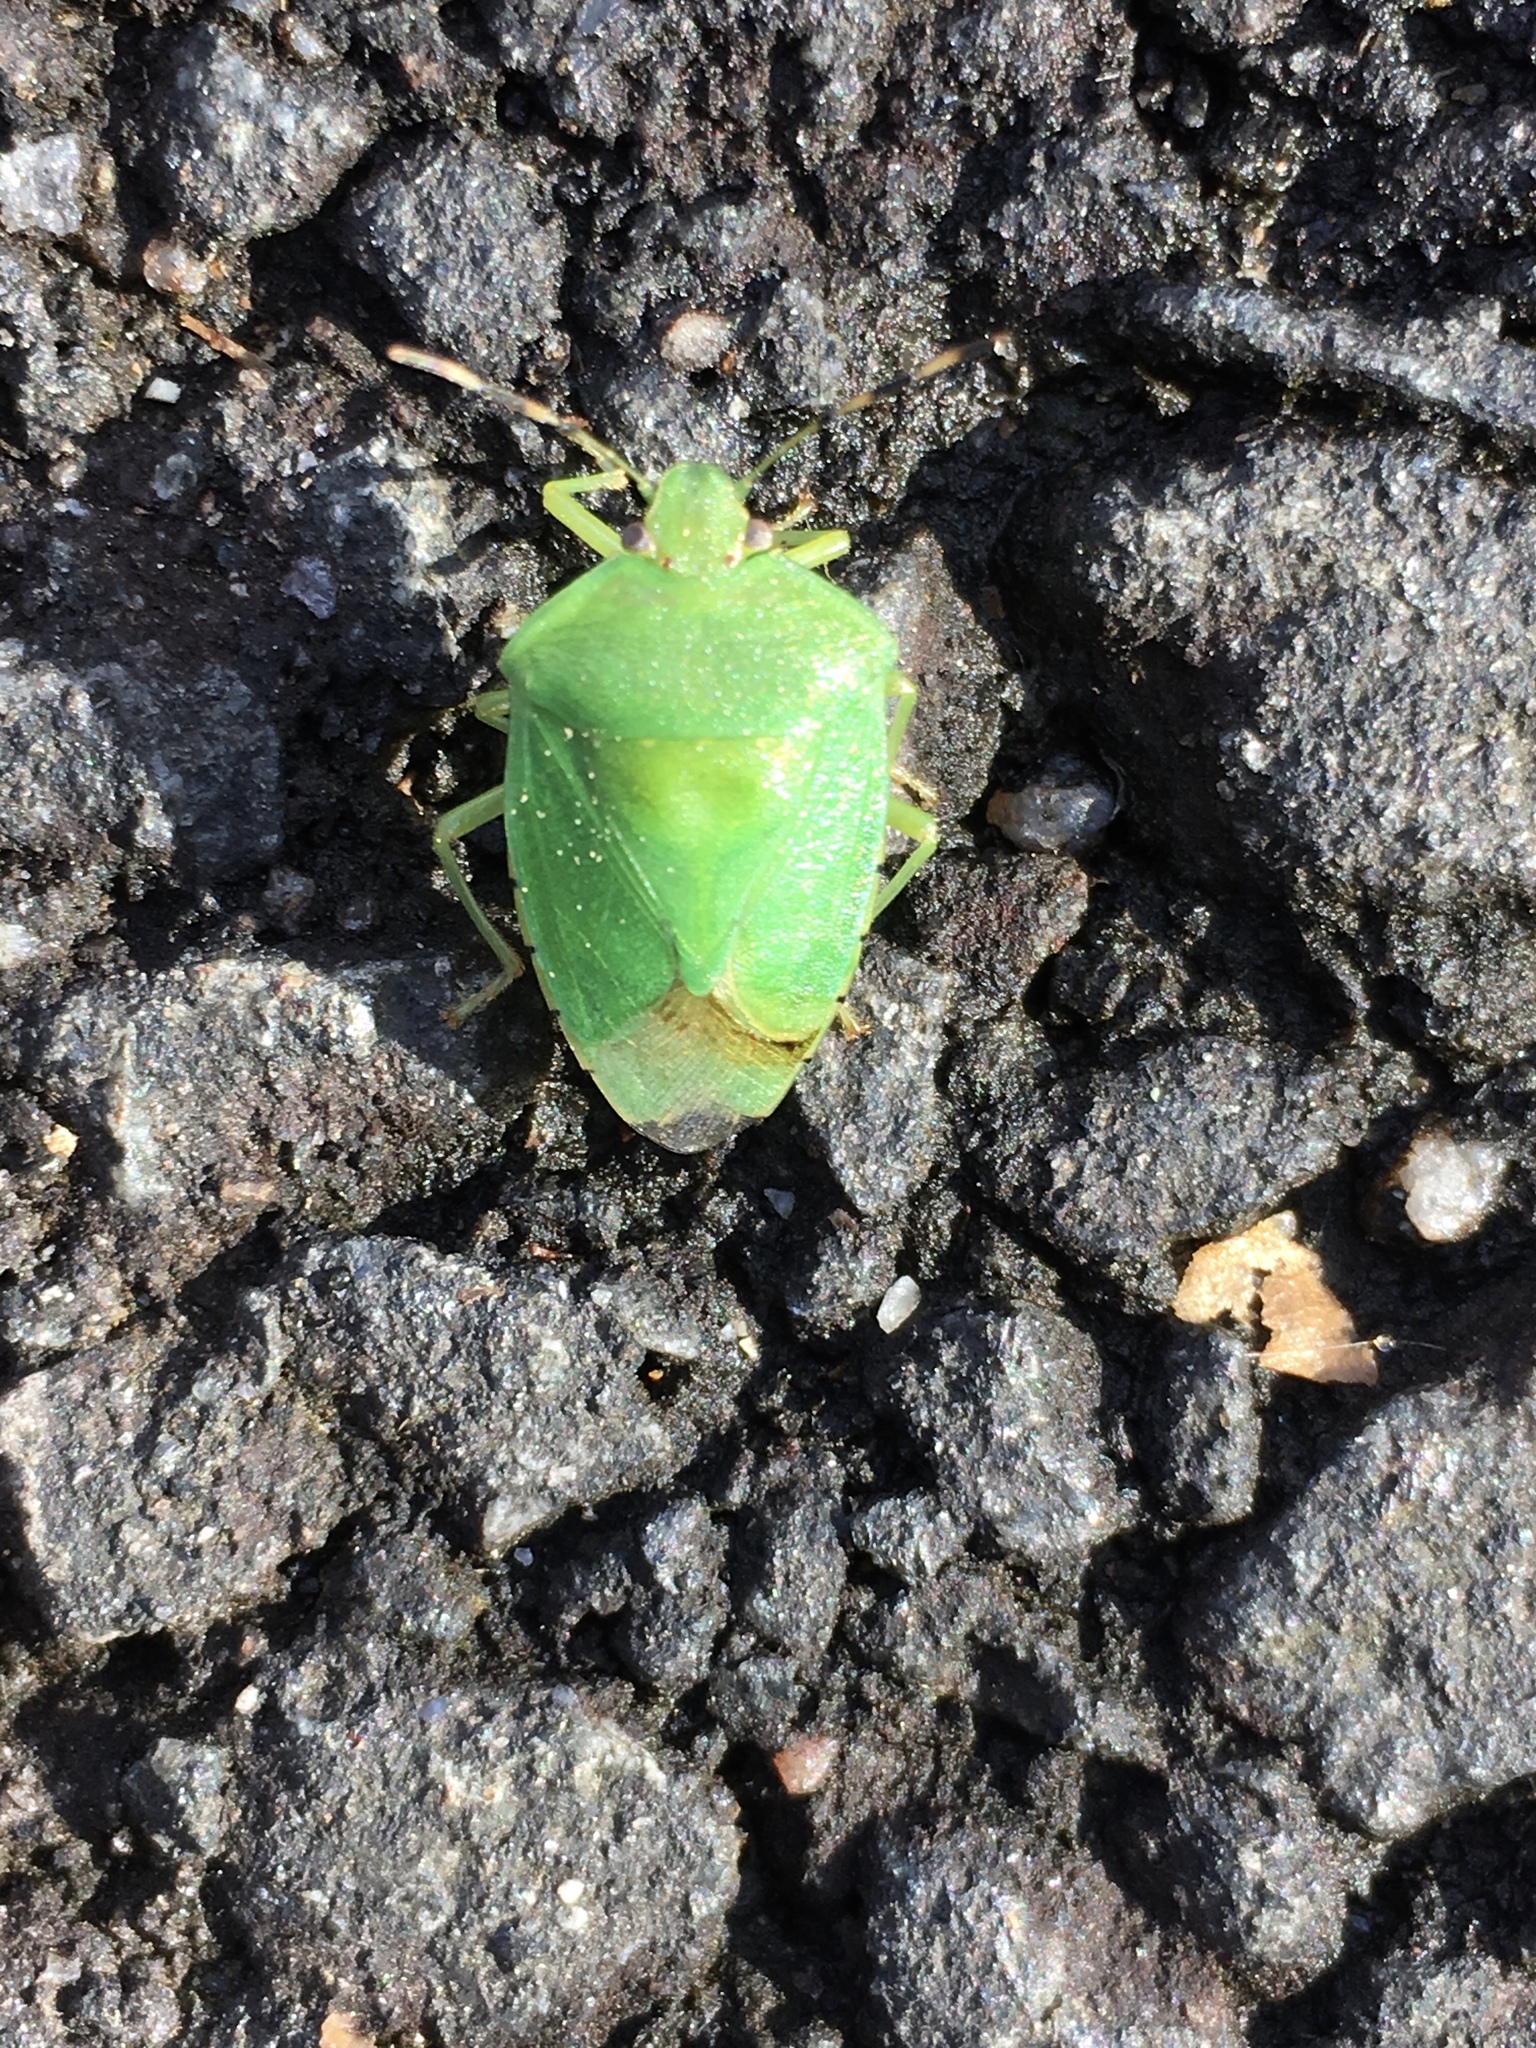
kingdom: Animalia
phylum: Arthropoda
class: Insecta
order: Hemiptera
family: Pentatomidae
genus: Chinavia
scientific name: Chinavia hilaris
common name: Green stink bug
